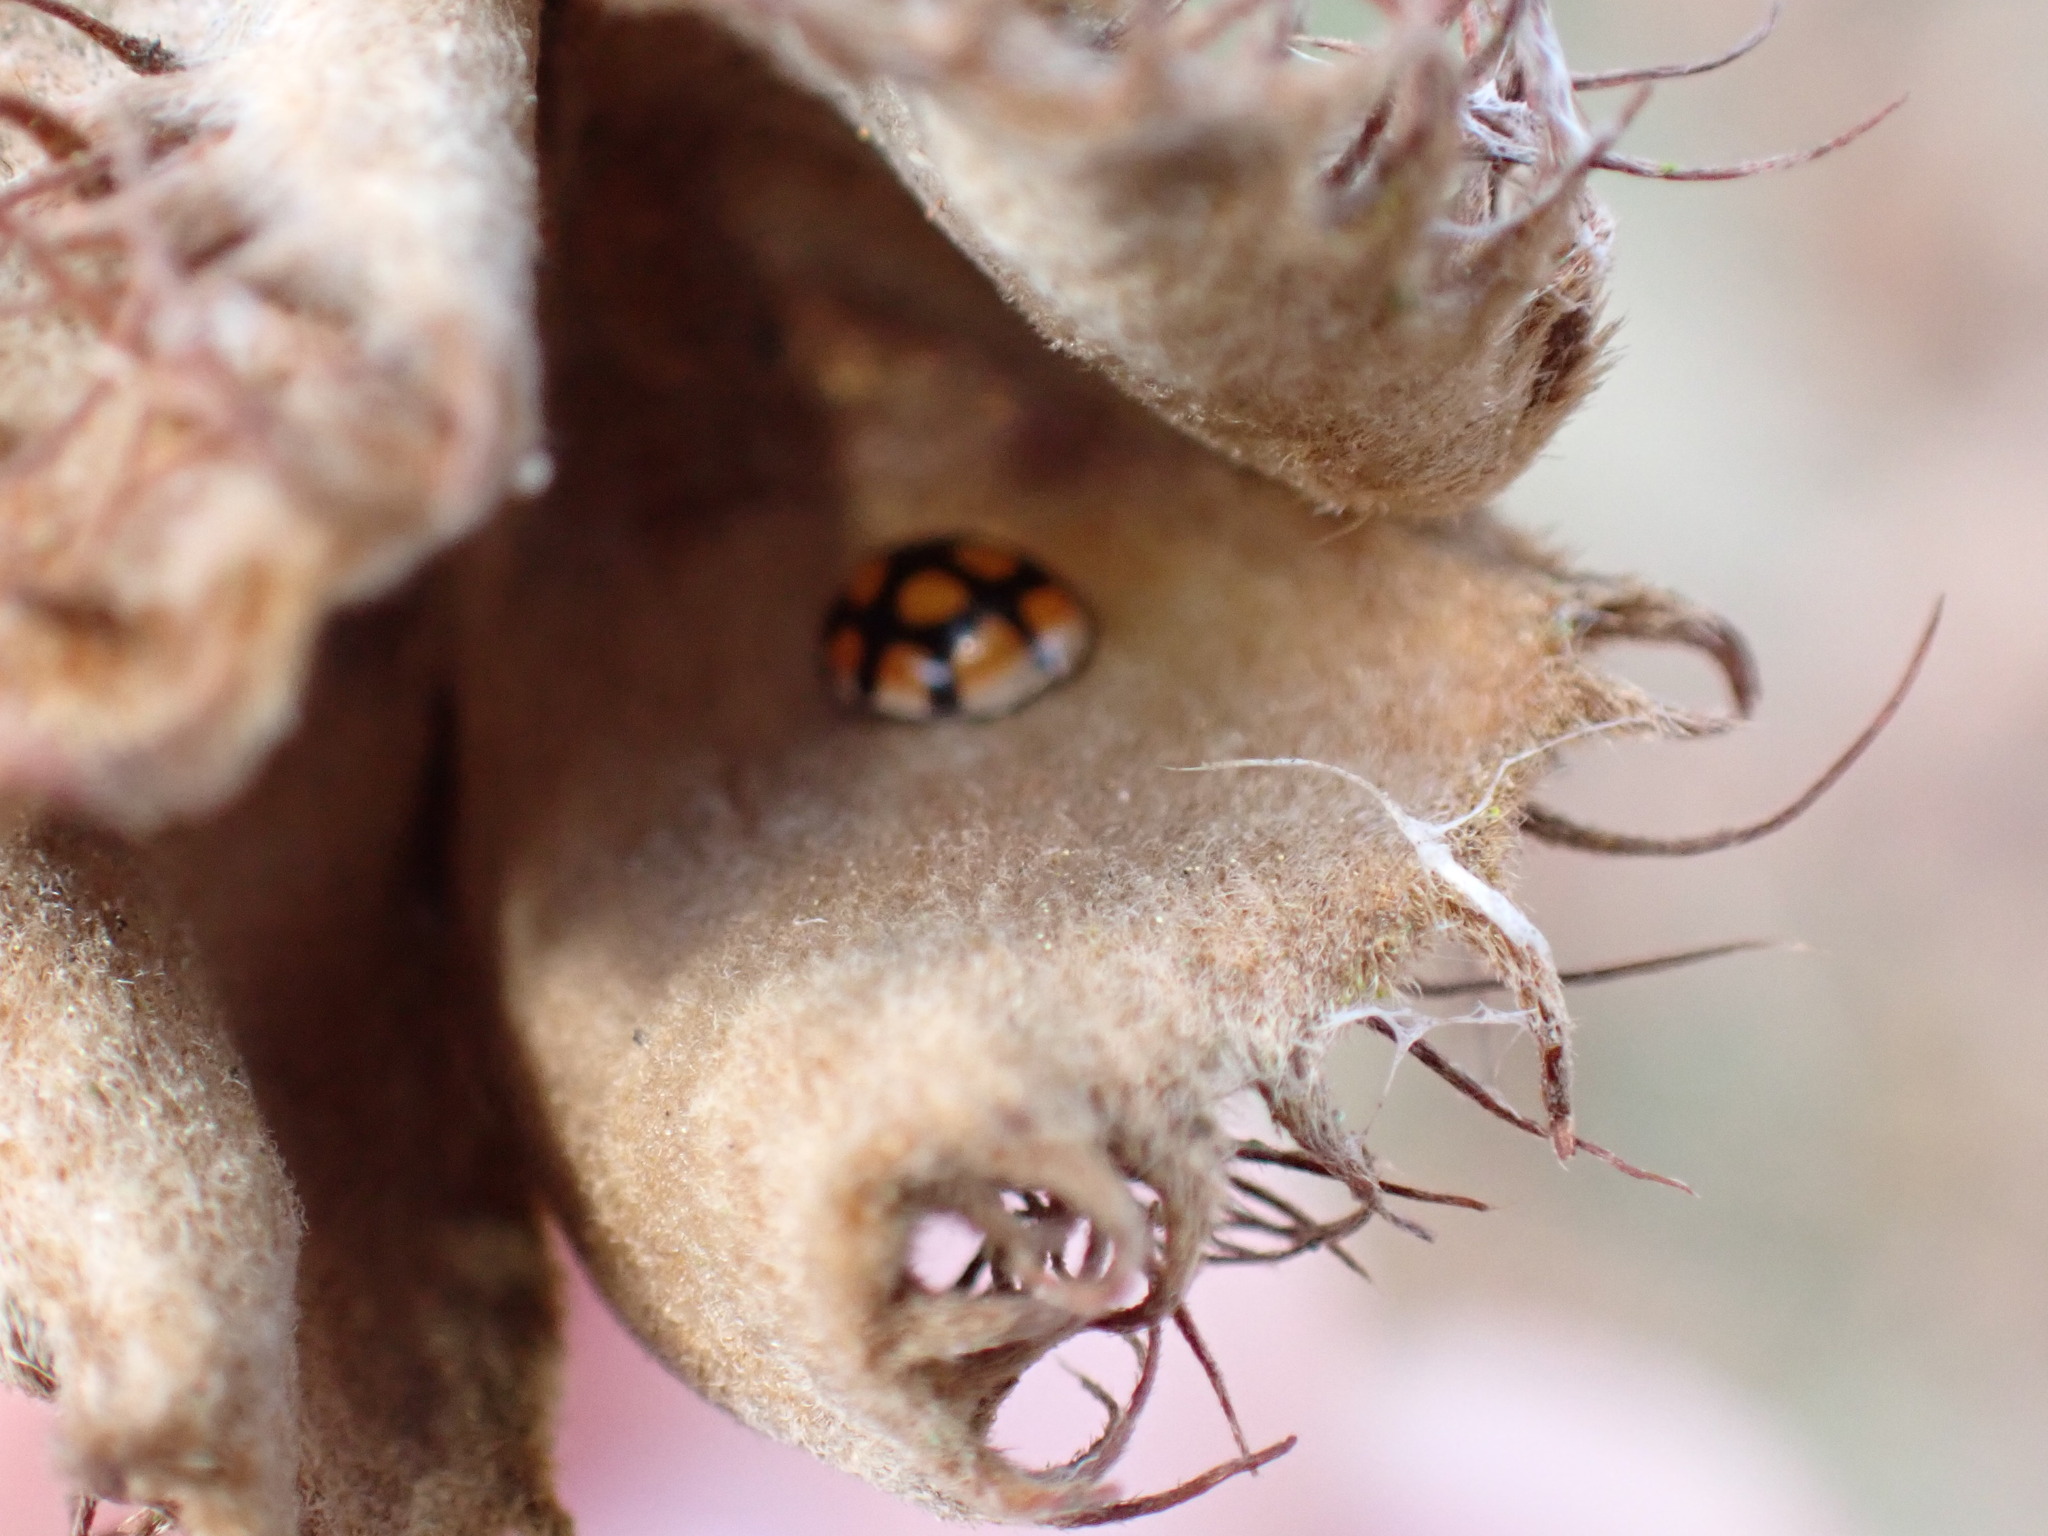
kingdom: Animalia
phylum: Arthropoda
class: Insecta
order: Coleoptera
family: Coccinellidae
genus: Adalia
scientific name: Adalia decempunctata
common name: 10-spot ladybird
